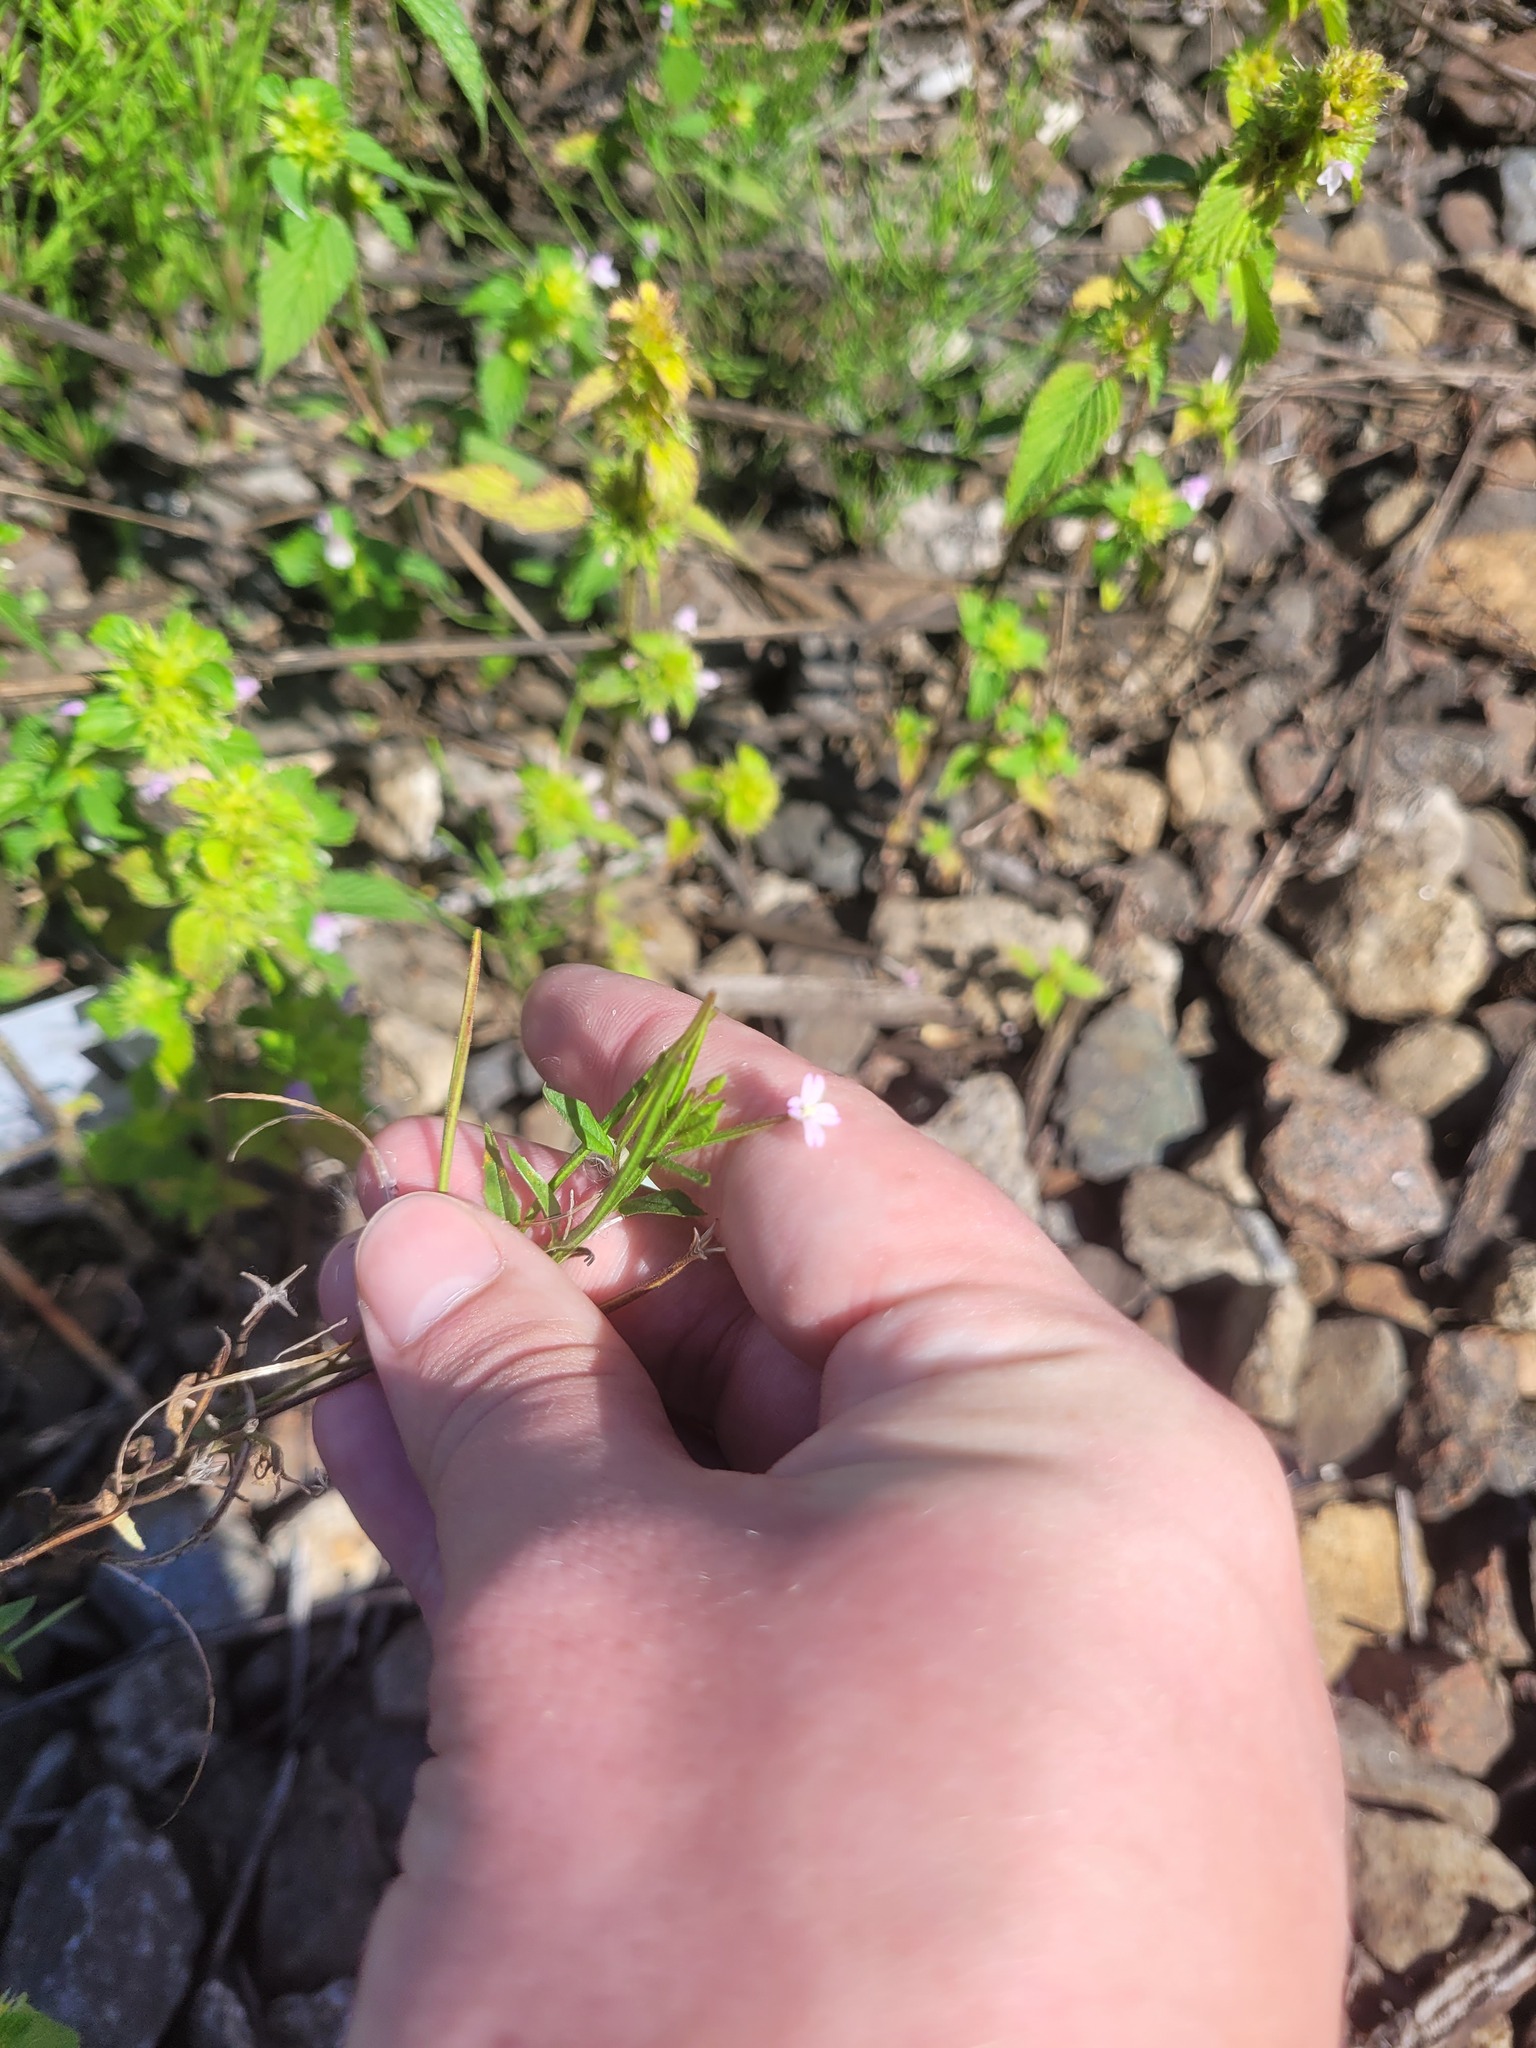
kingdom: Plantae
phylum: Tracheophyta
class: Magnoliopsida
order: Myrtales
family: Onagraceae
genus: Epilobium
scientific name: Epilobium ciliatum
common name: American willowherb
